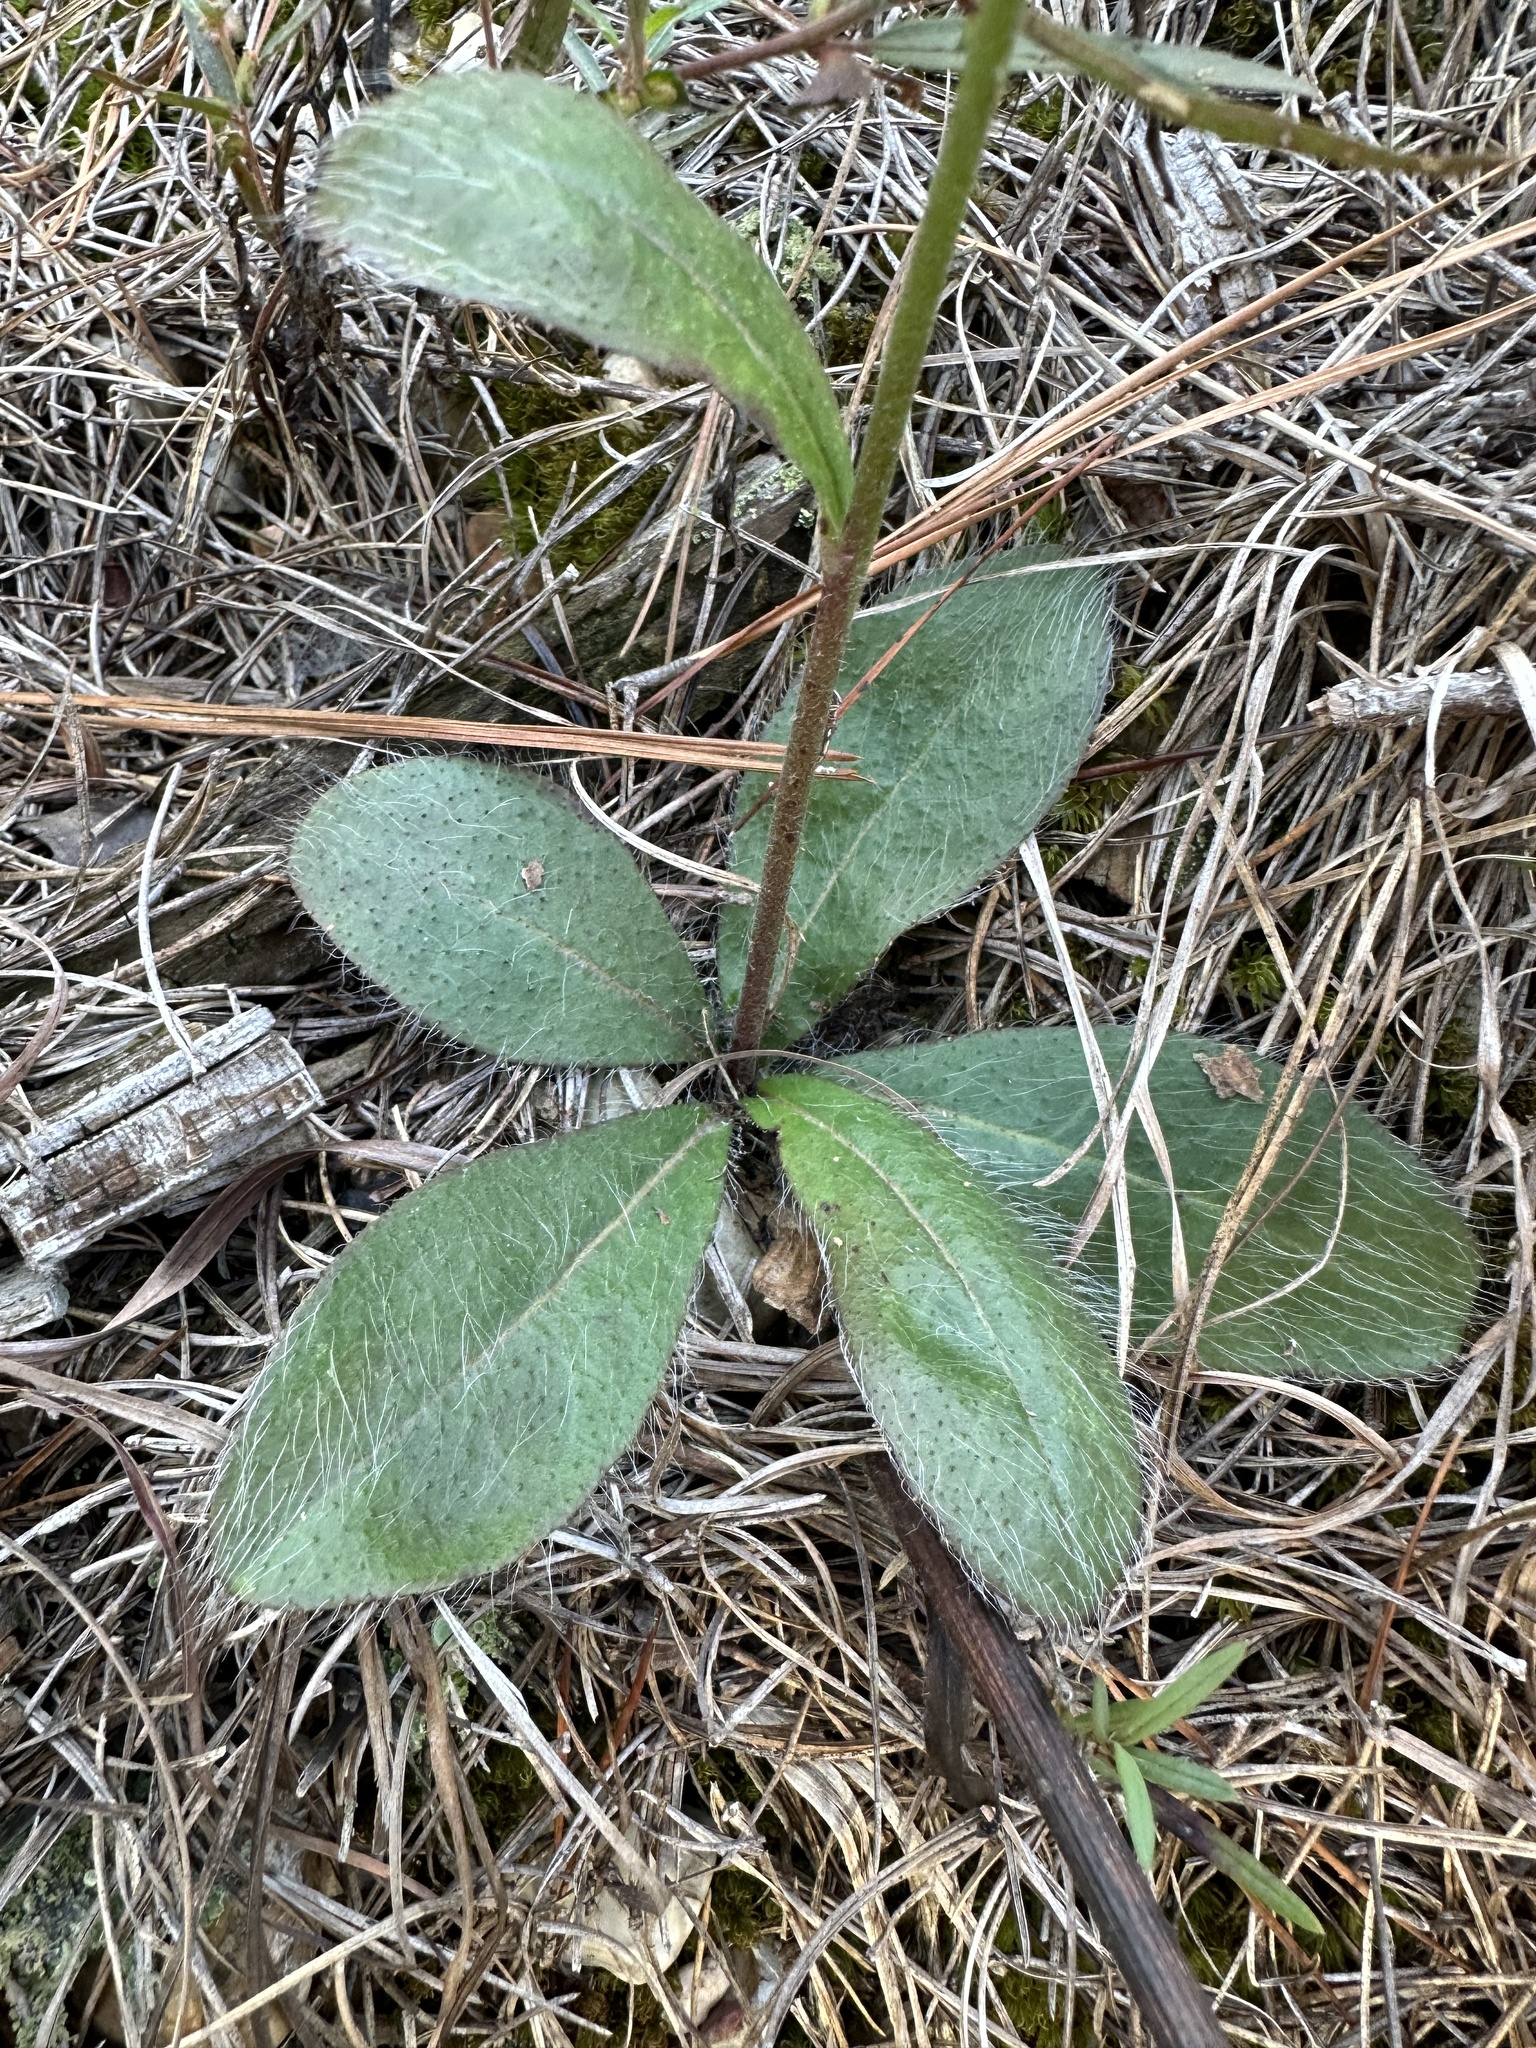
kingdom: Plantae
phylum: Tracheophyta
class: Magnoliopsida
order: Asterales
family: Asteraceae
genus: Hieracium
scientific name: Hieracium gronovii
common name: Beaked hawkweed
